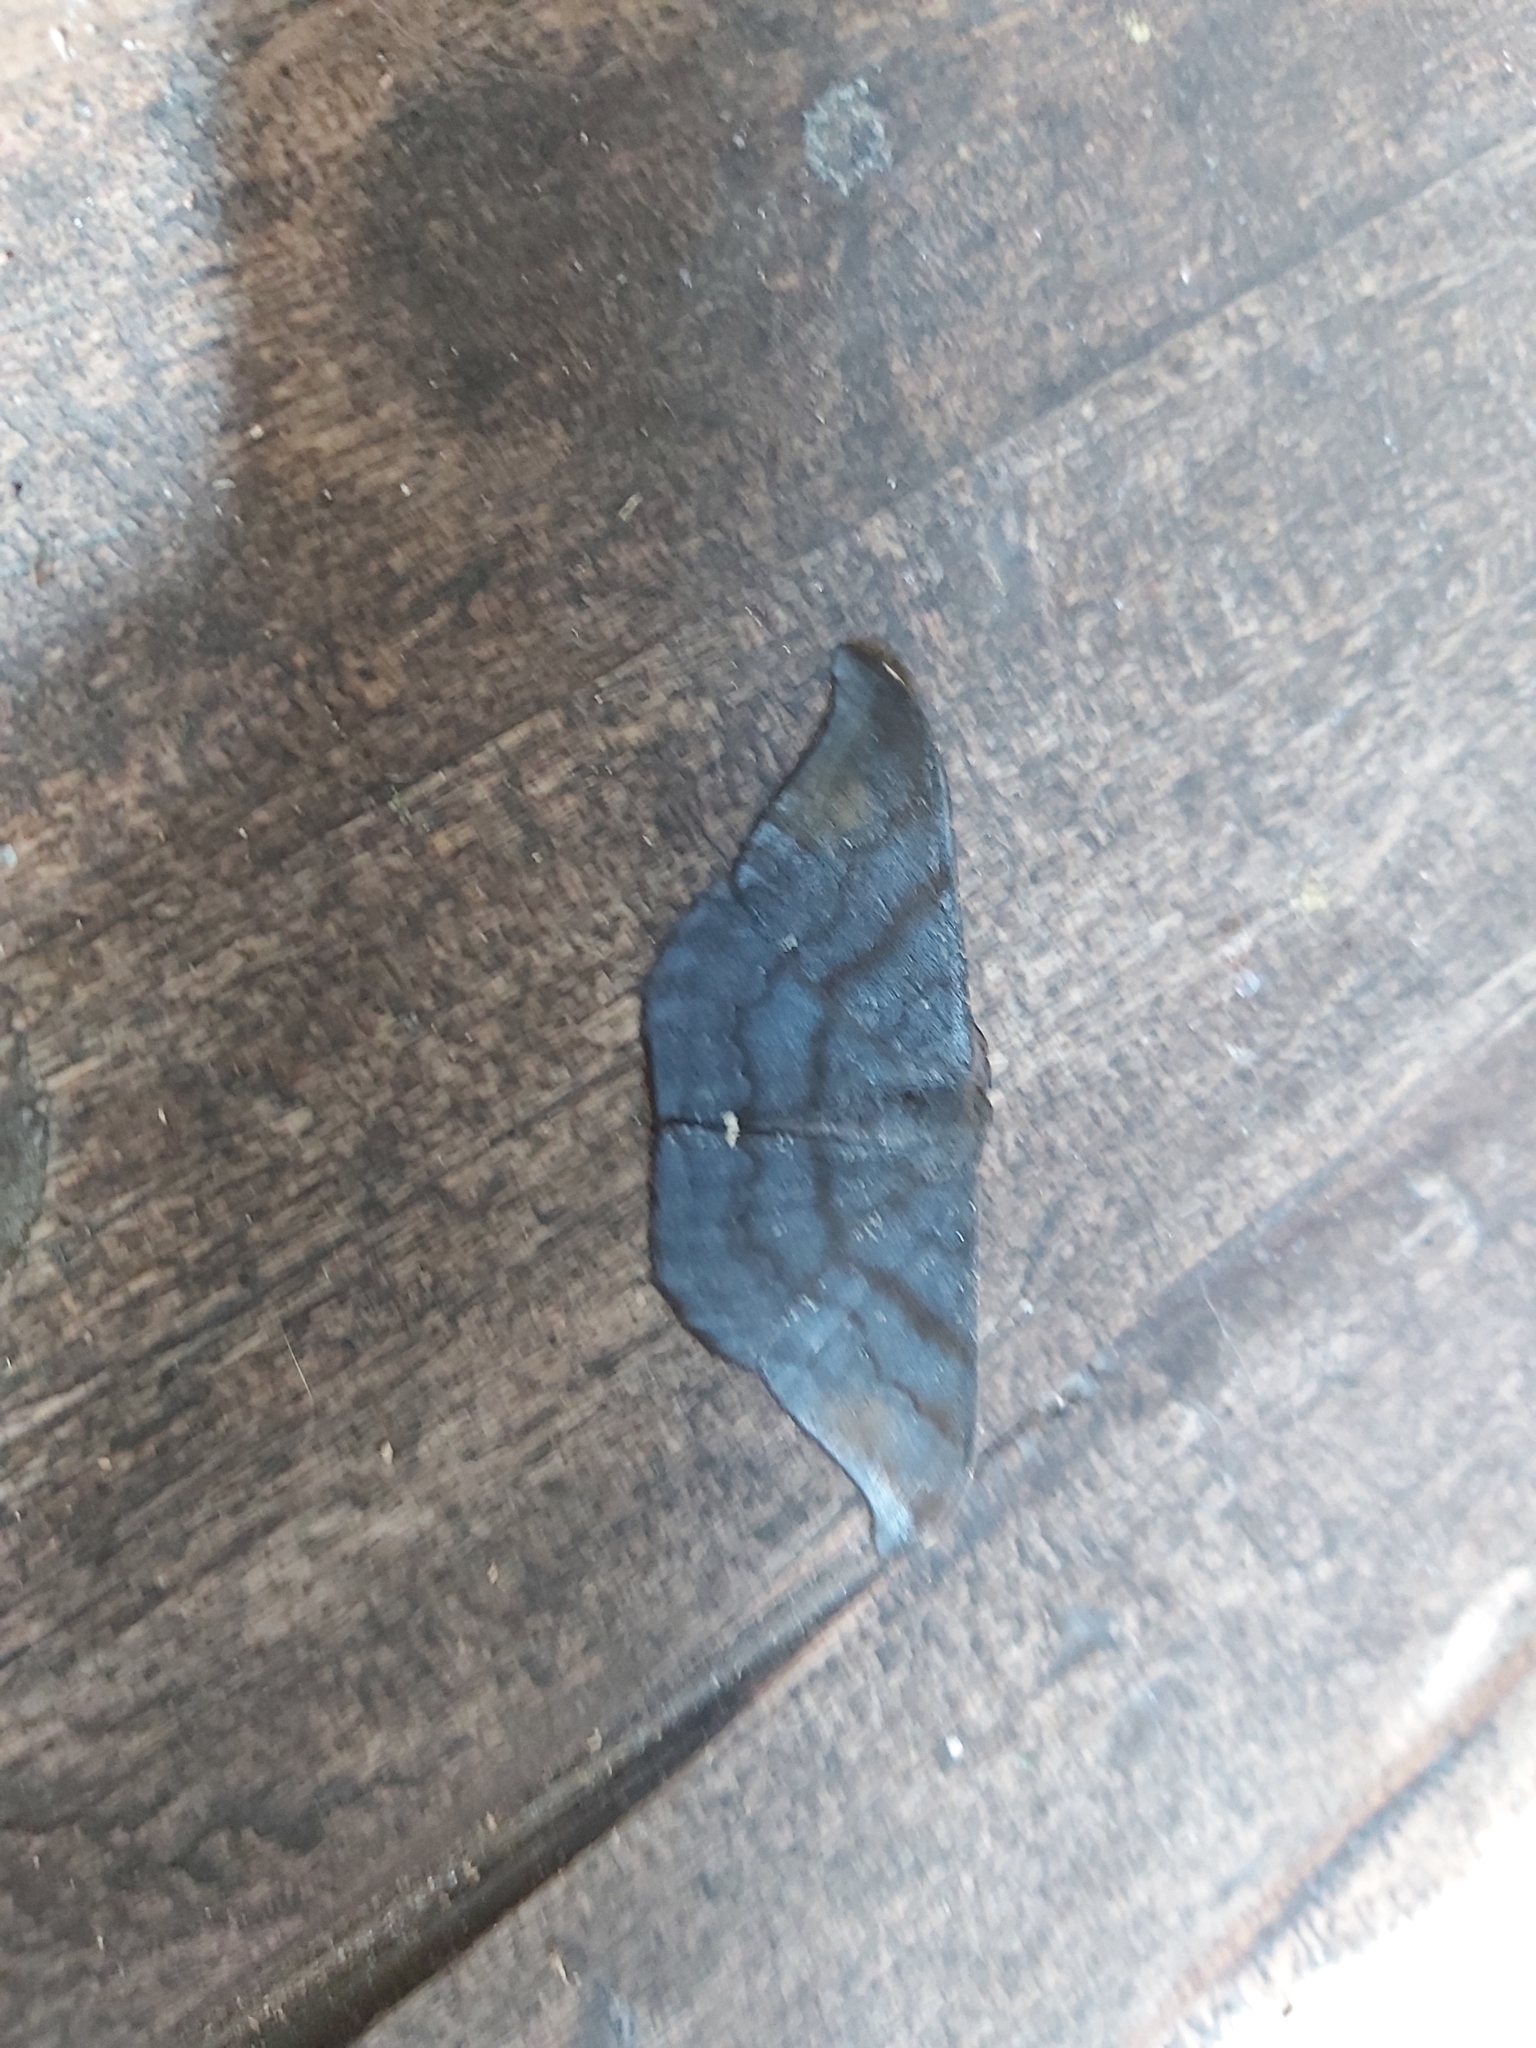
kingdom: Animalia
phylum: Arthropoda
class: Insecta
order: Lepidoptera
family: Geometridae
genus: Hyposidra
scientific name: Hyposidra aquilaria
